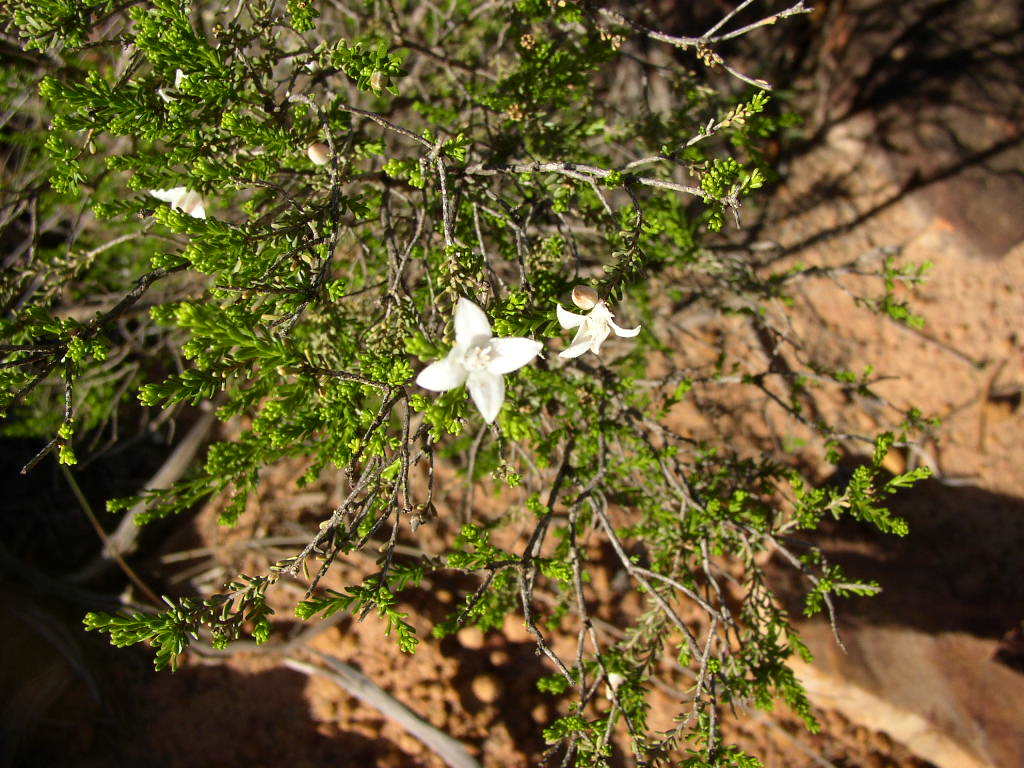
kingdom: Plantae
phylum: Tracheophyta
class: Magnoliopsida
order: Sapindales
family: Rutaceae
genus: Philotheca
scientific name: Philotheca sericea
